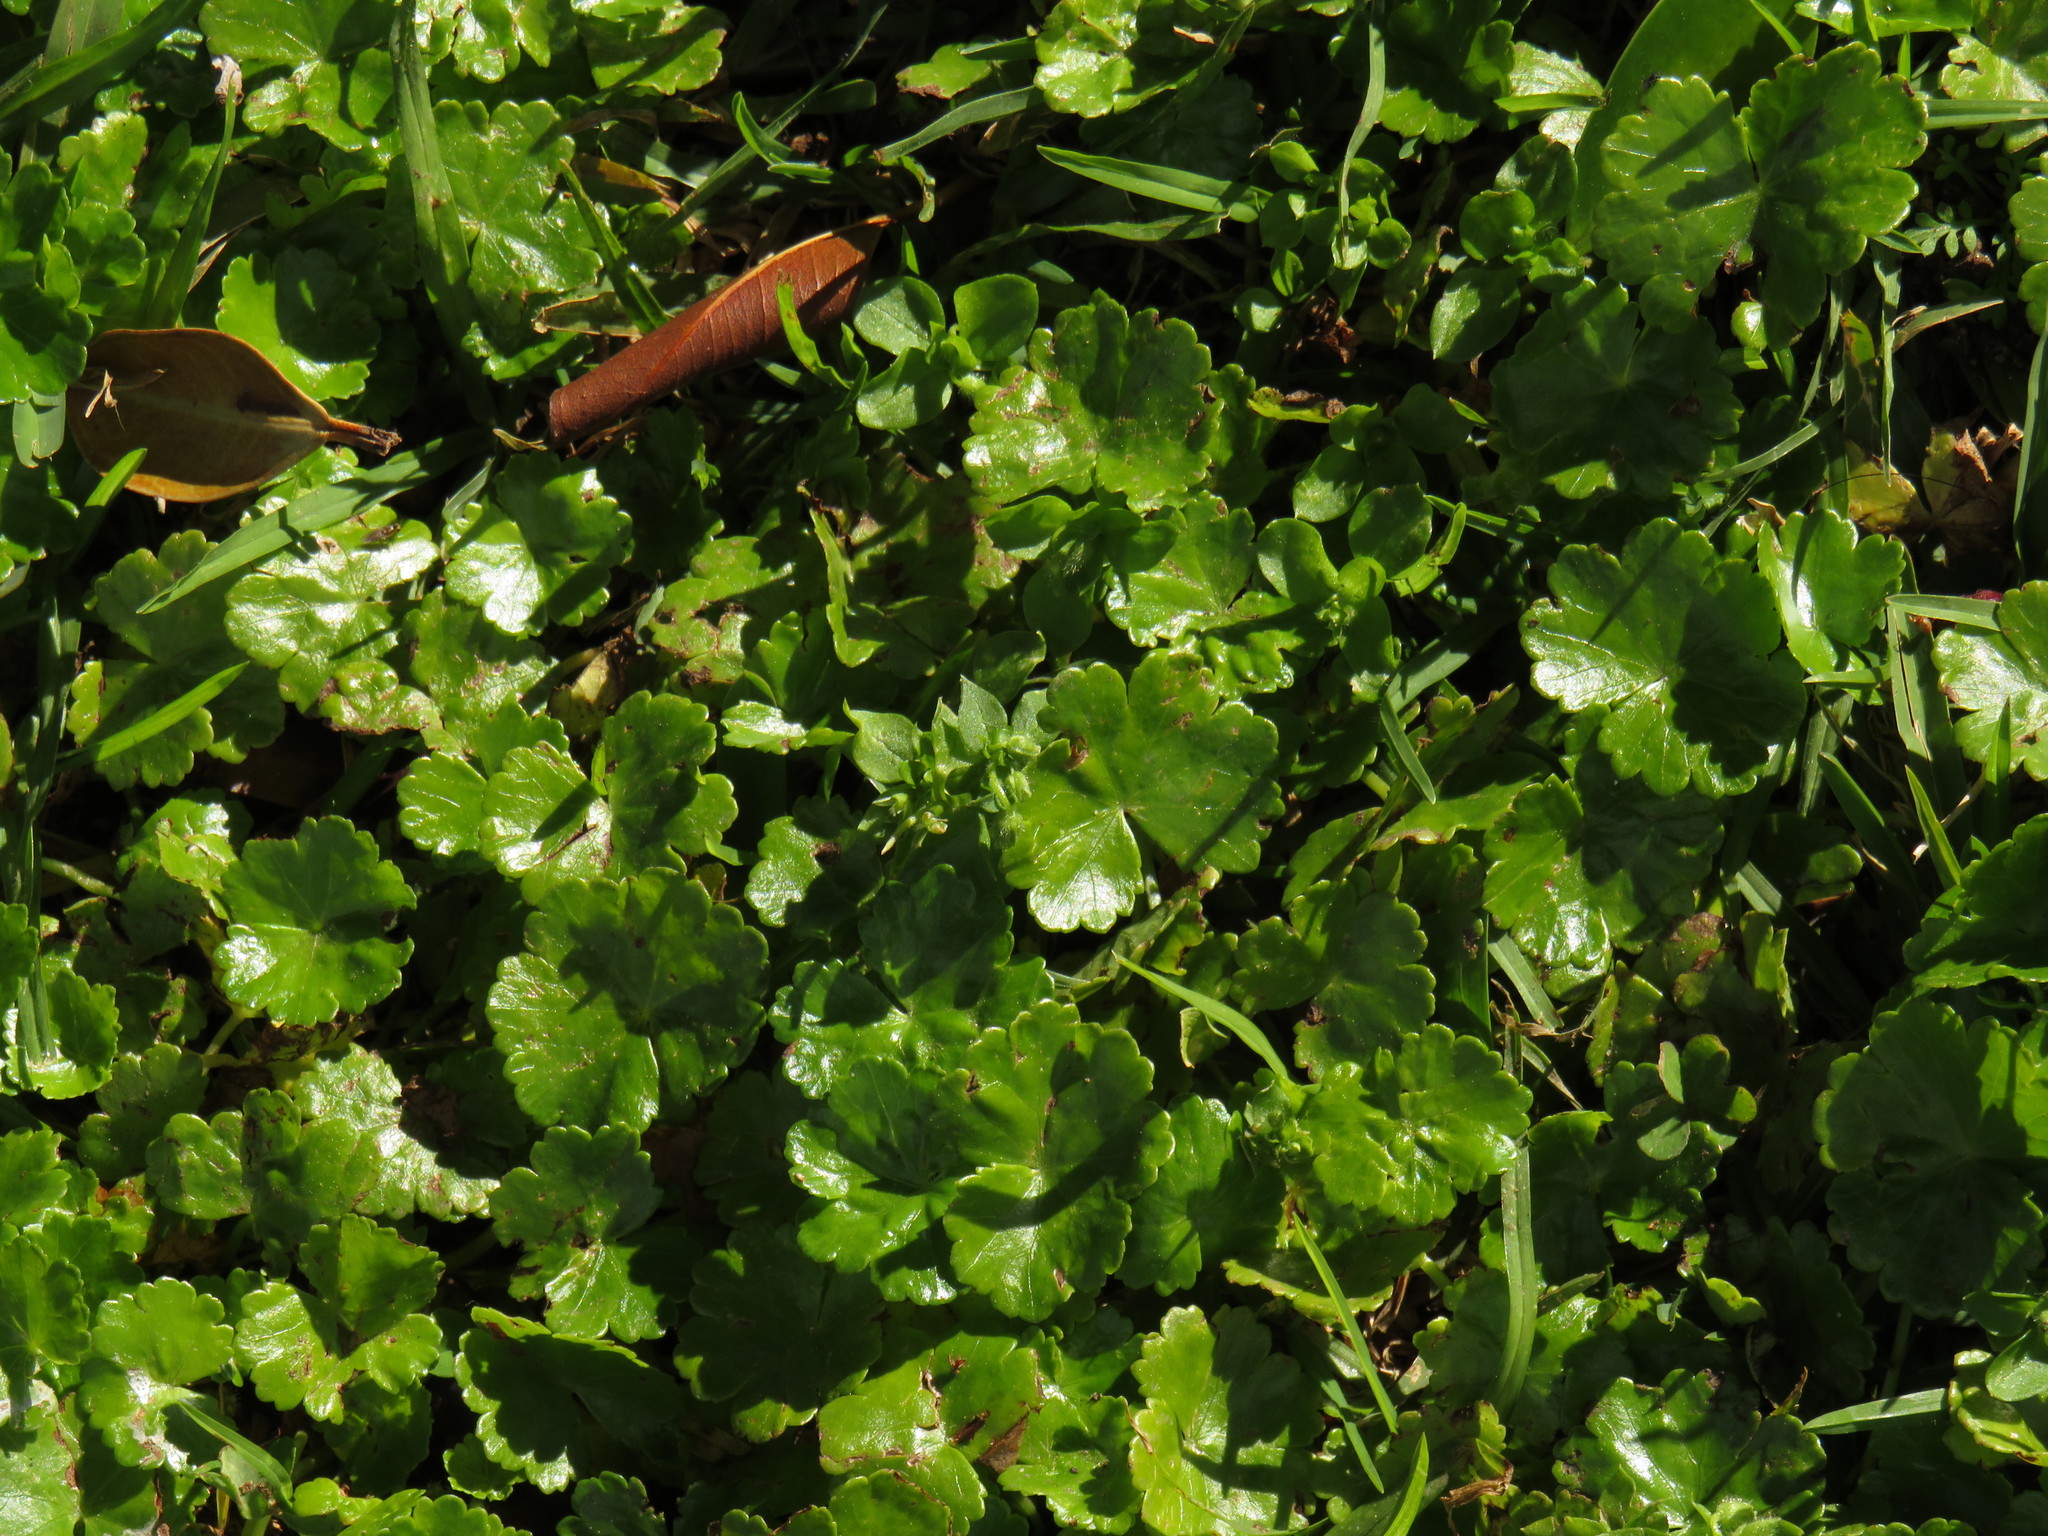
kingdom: Plantae
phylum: Tracheophyta
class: Magnoliopsida
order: Apiales
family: Araliaceae
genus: Hydrocotyle
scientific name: Hydrocotyle sibthorpioides
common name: Lawn marshpennywort
